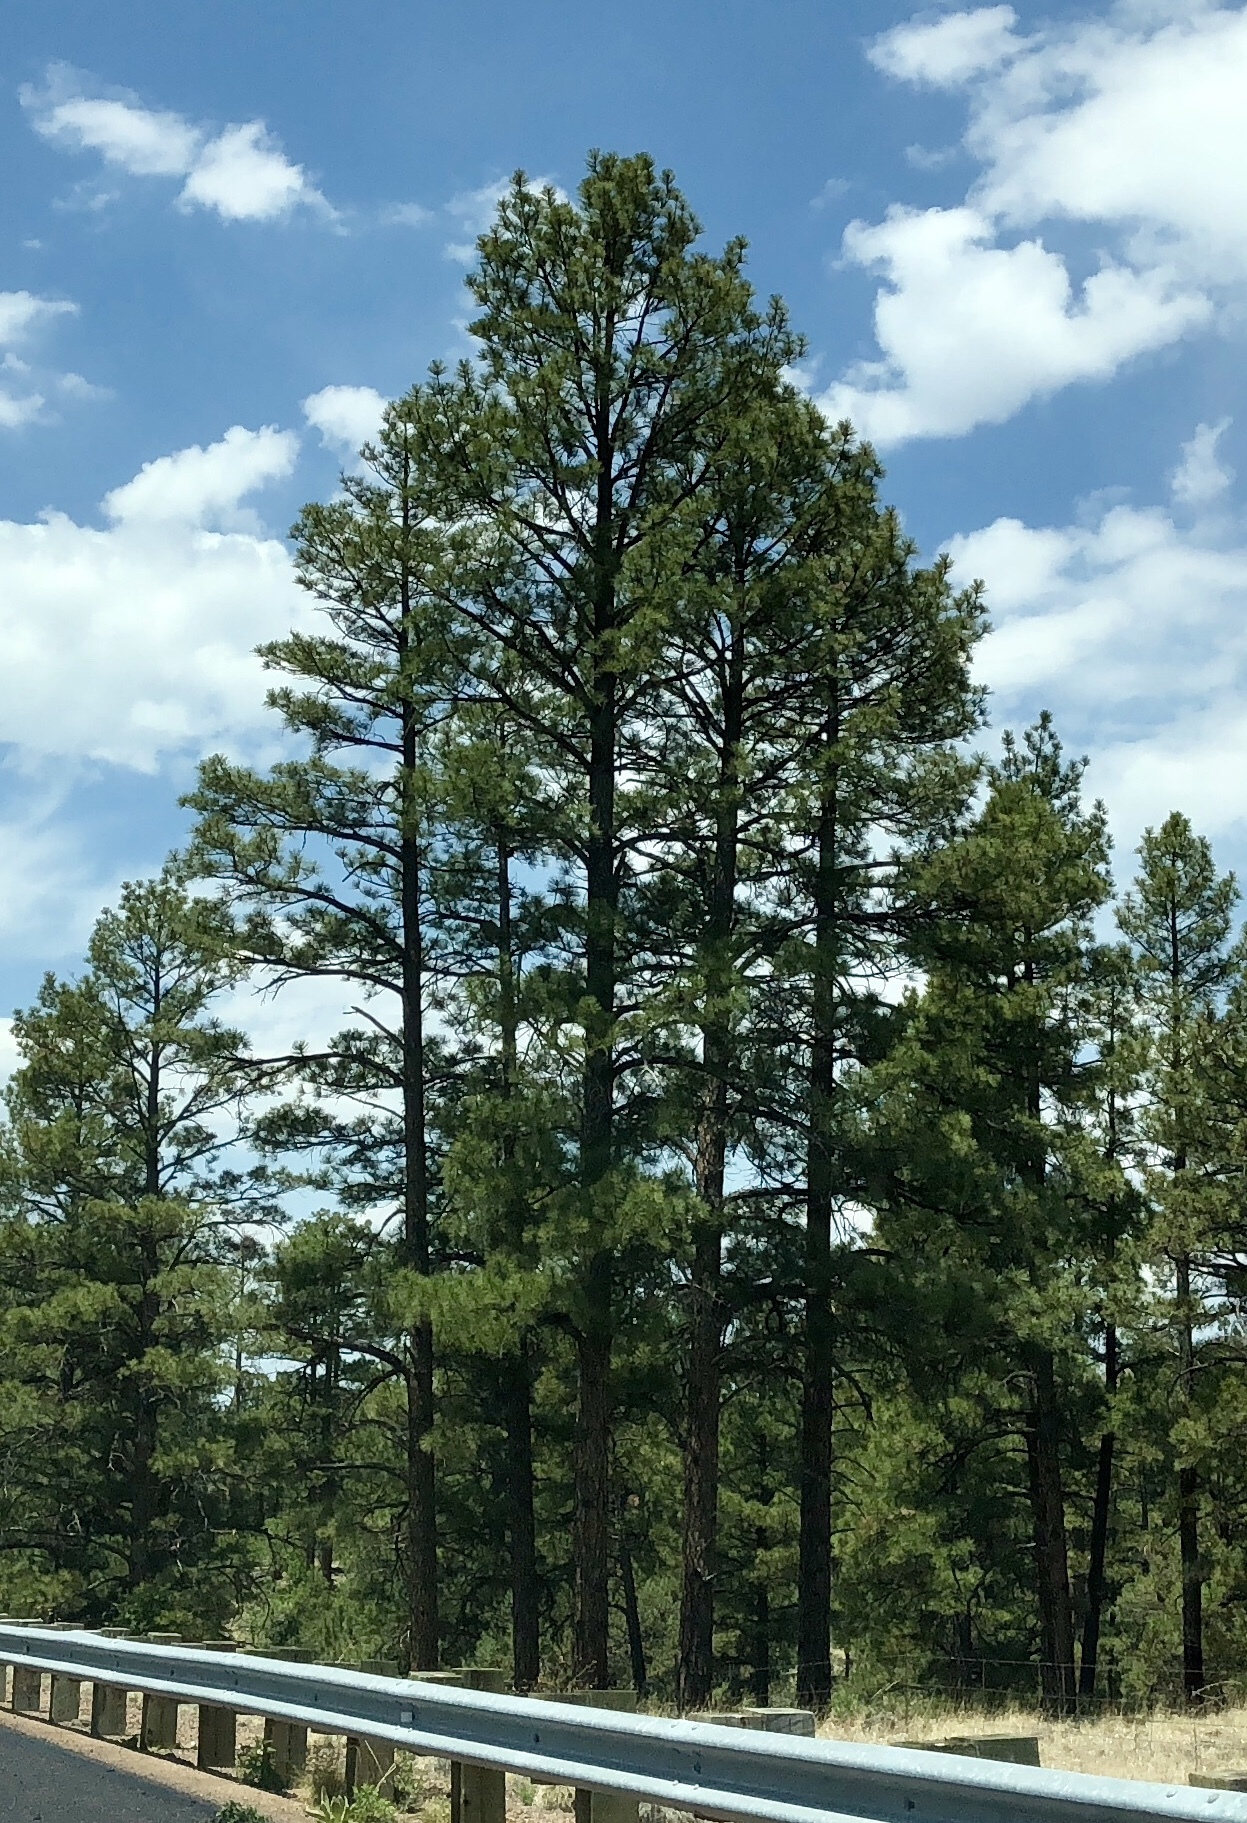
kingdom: Plantae
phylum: Tracheophyta
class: Pinopsida
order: Pinales
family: Pinaceae
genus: Pinus
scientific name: Pinus ponderosa
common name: Western yellow-pine
